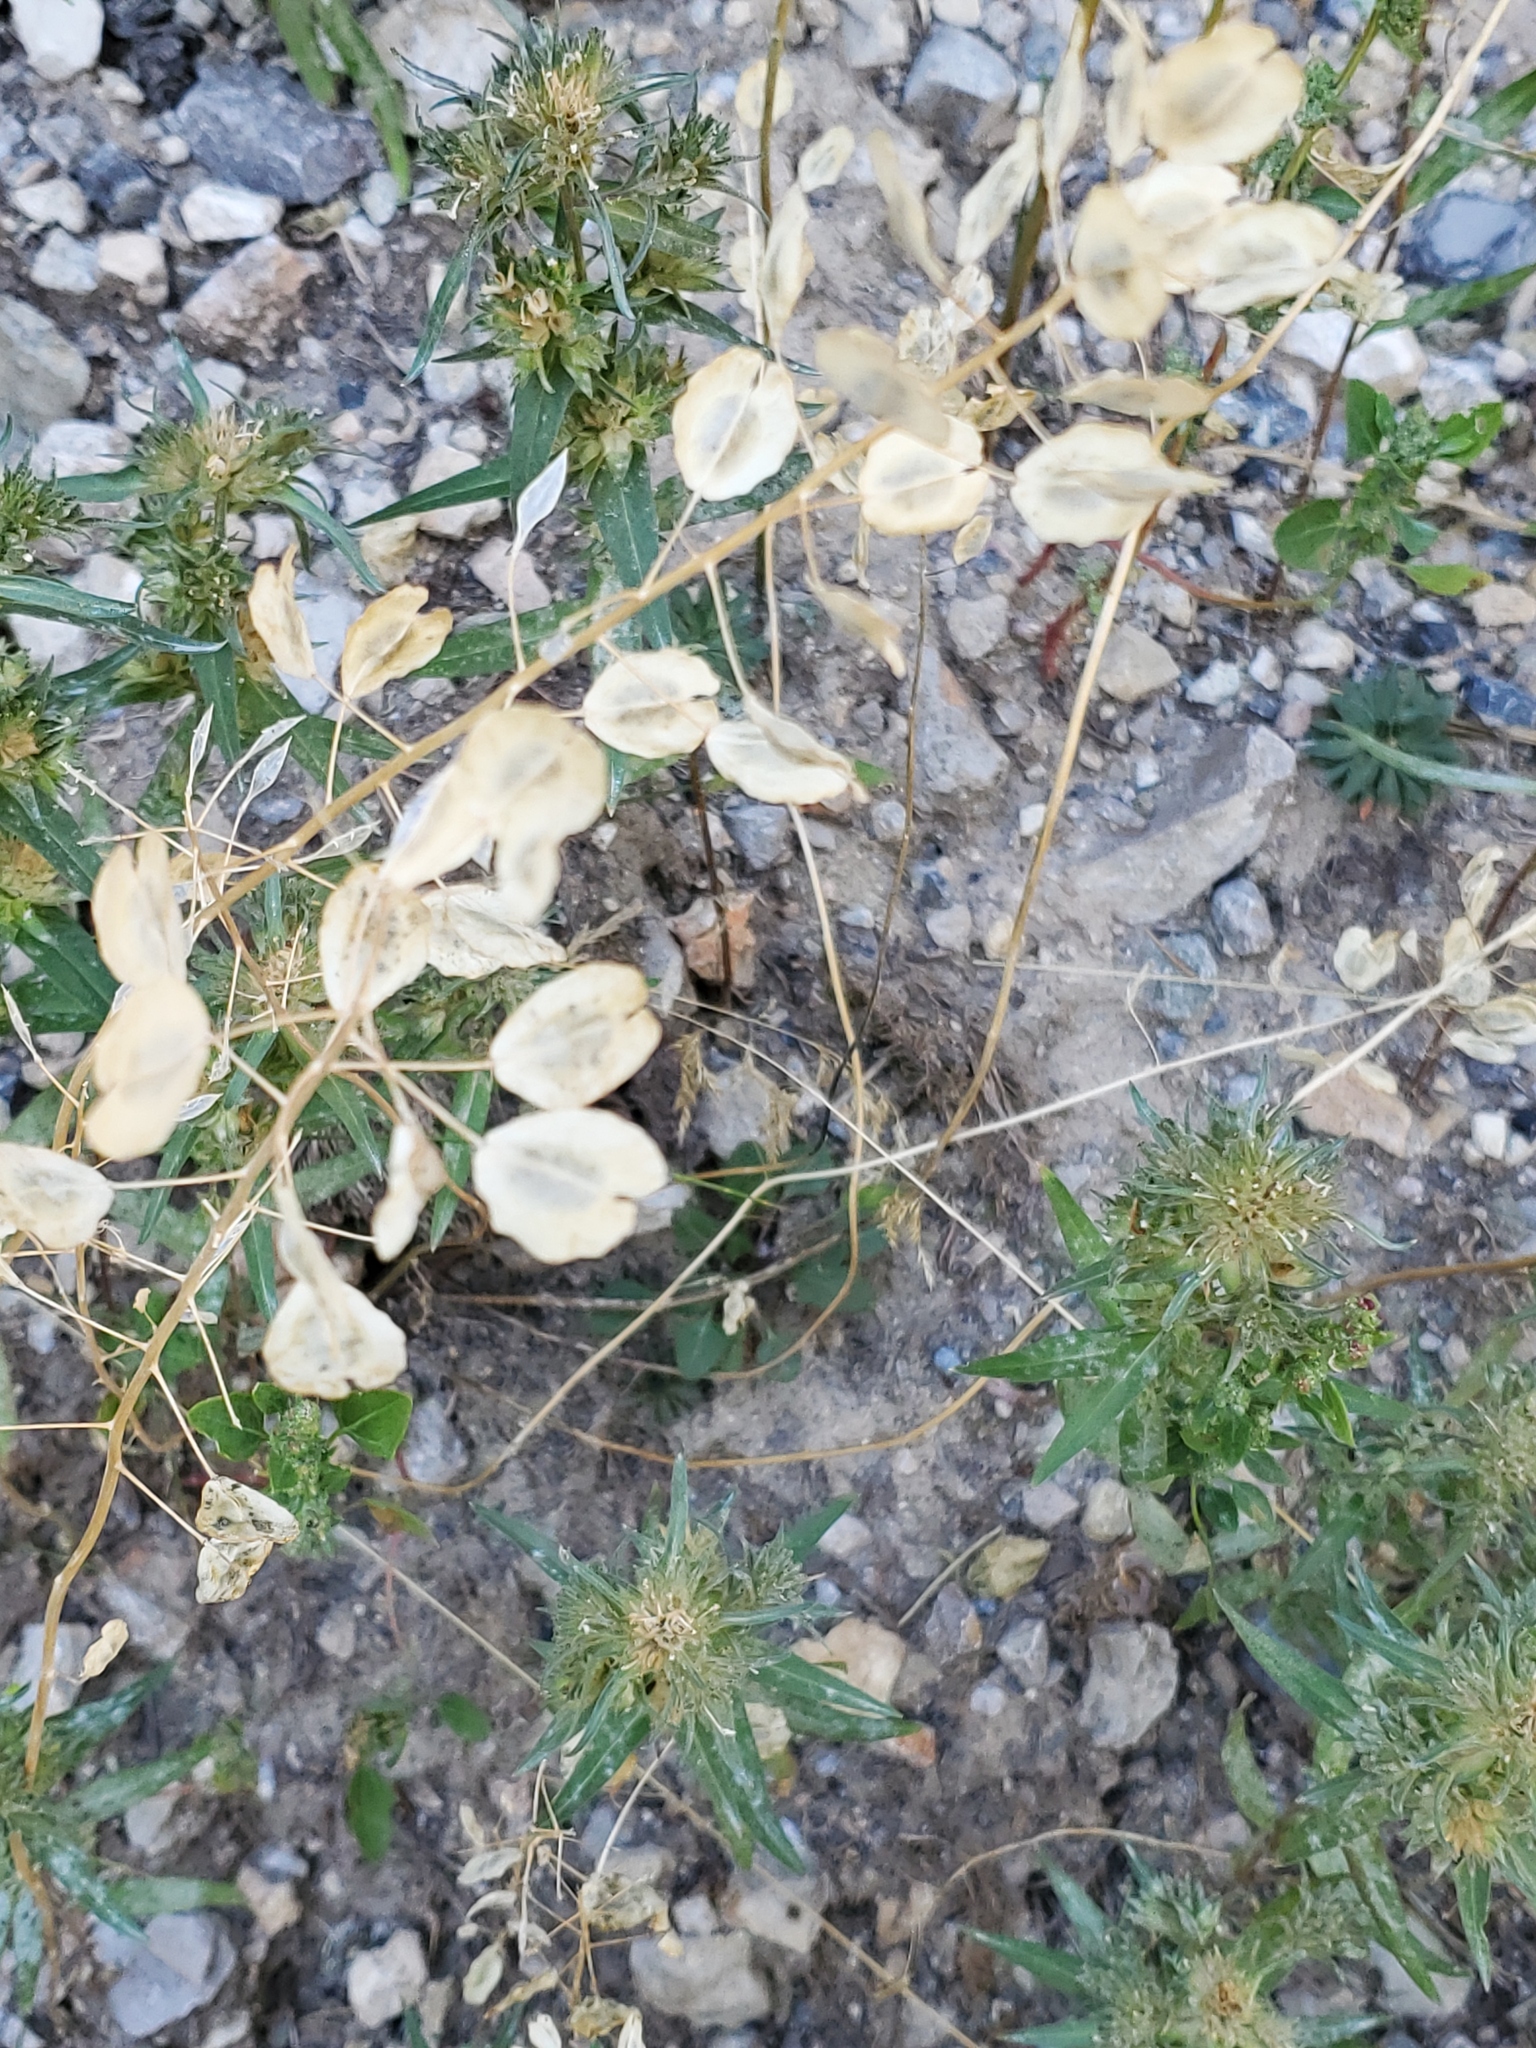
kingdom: Plantae
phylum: Tracheophyta
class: Magnoliopsida
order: Brassicales
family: Brassicaceae
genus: Thlaspi
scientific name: Thlaspi arvense
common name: Field pennycress
